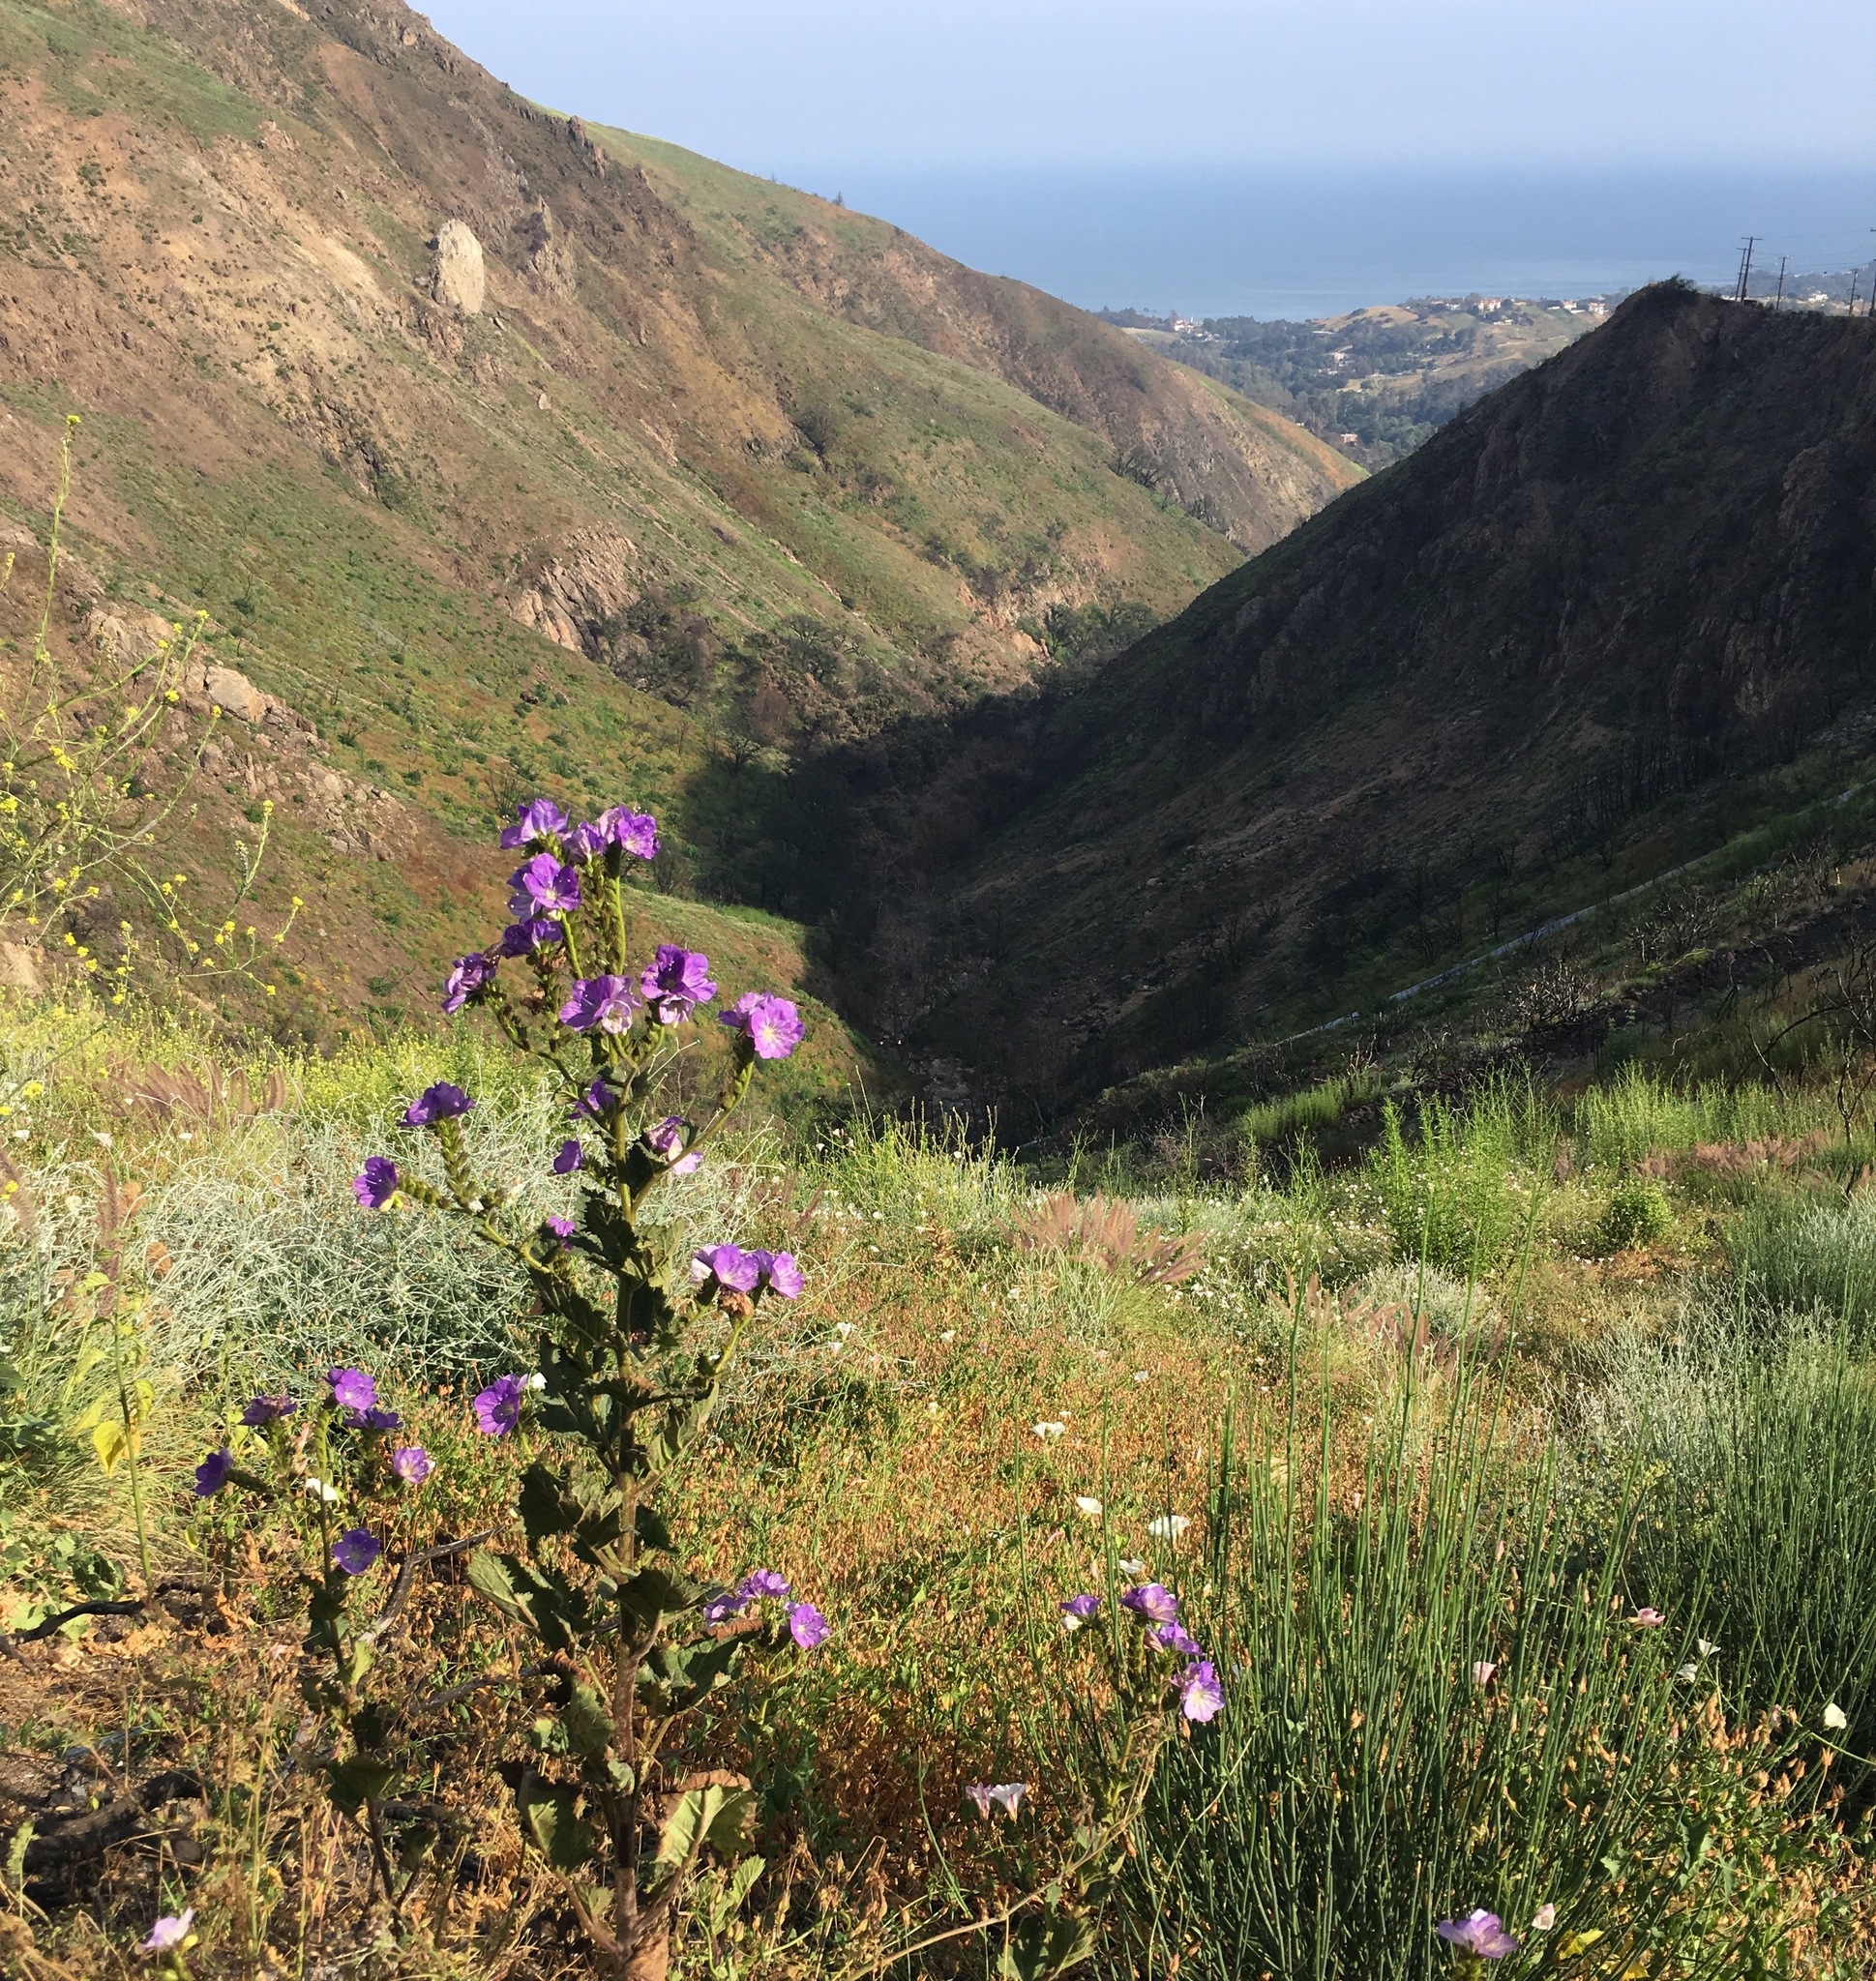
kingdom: Plantae
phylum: Tracheophyta
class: Magnoliopsida
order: Boraginales
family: Hydrophyllaceae
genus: Phacelia
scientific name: Phacelia grandiflora
